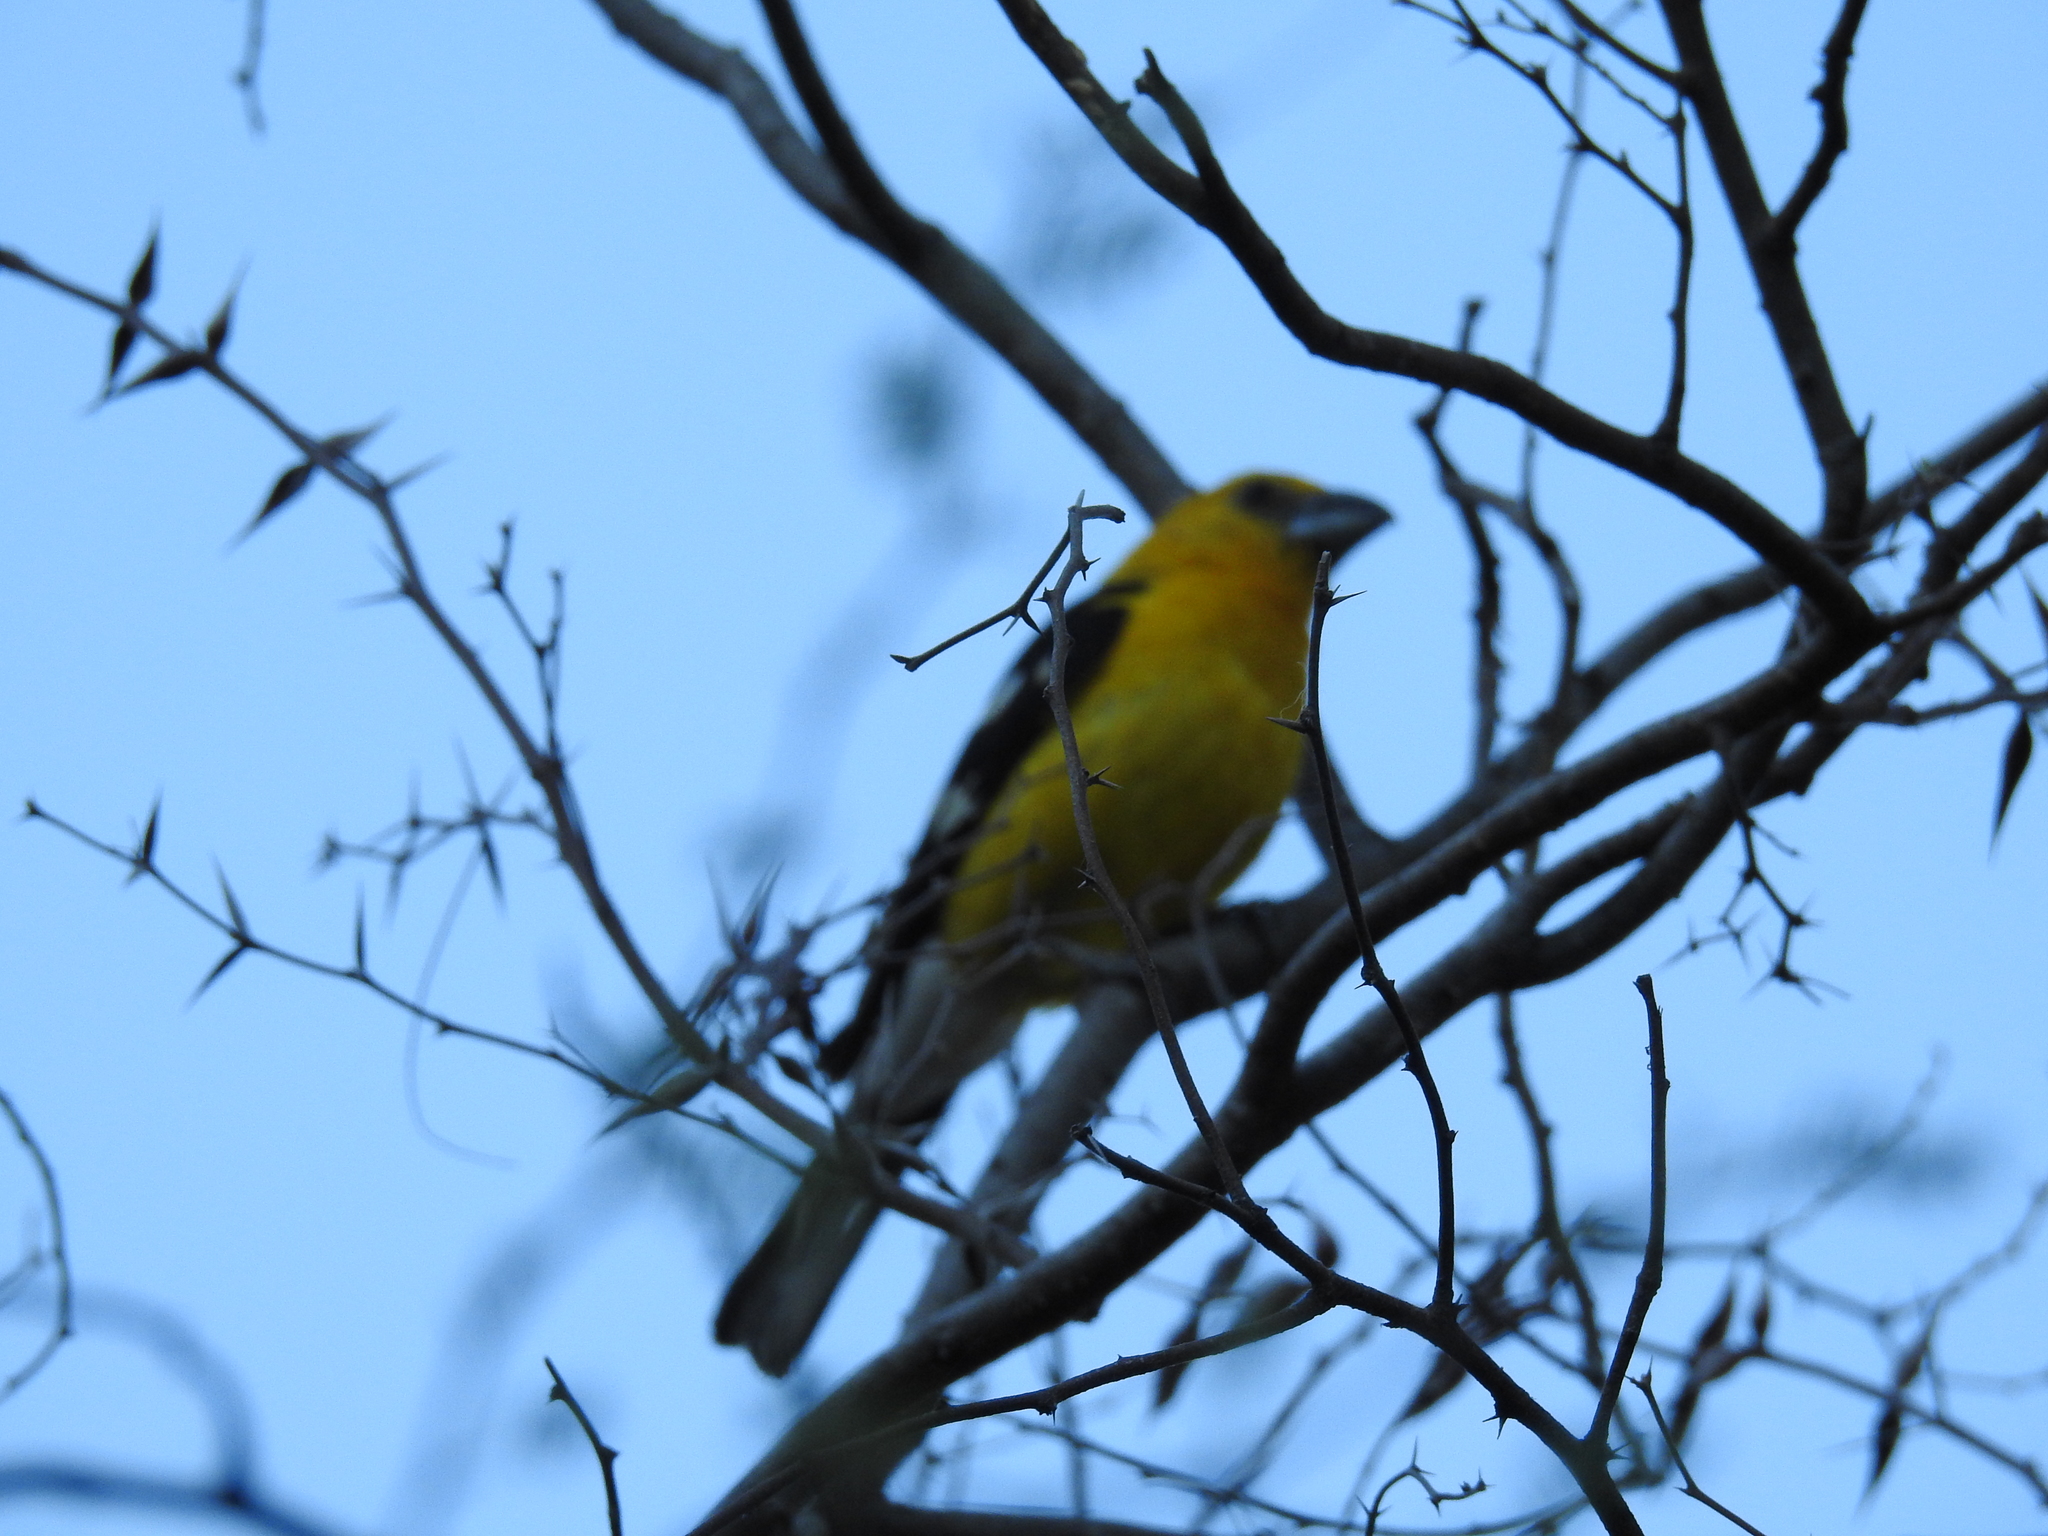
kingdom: Animalia
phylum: Chordata
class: Aves
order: Passeriformes
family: Cardinalidae
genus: Pheucticus
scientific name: Pheucticus chrysopeplus
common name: Yellow grosbeak
